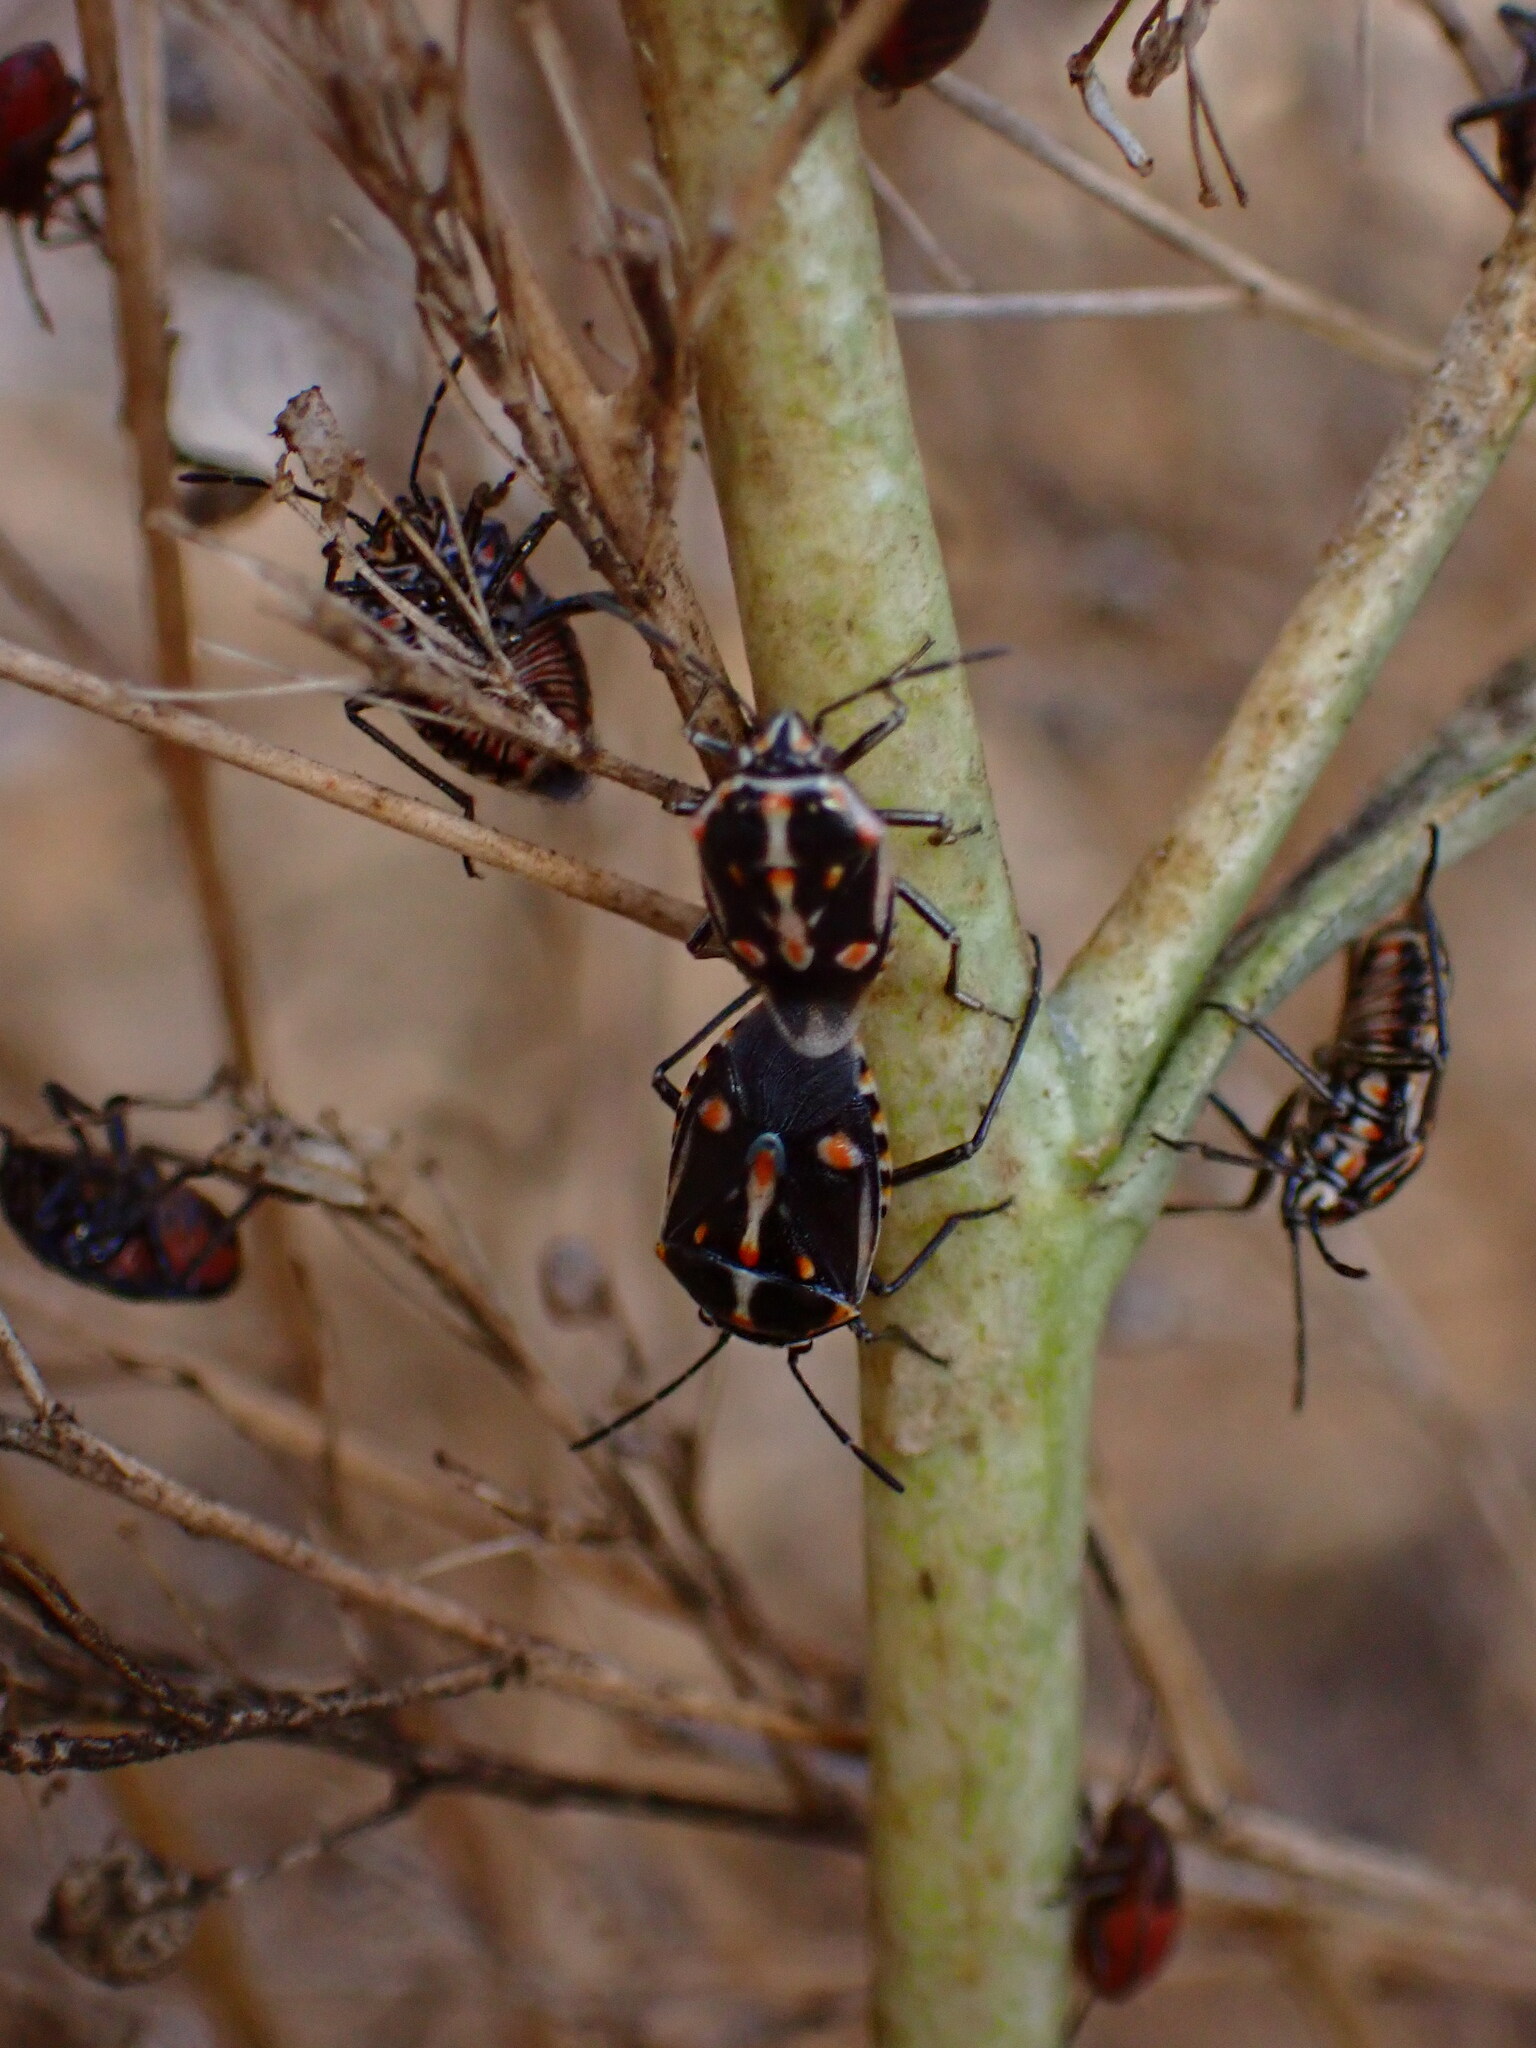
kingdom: Animalia
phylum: Arthropoda
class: Insecta
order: Hemiptera
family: Pentatomidae
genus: Bagrada
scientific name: Bagrada hilaris
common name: Bagrada bug
